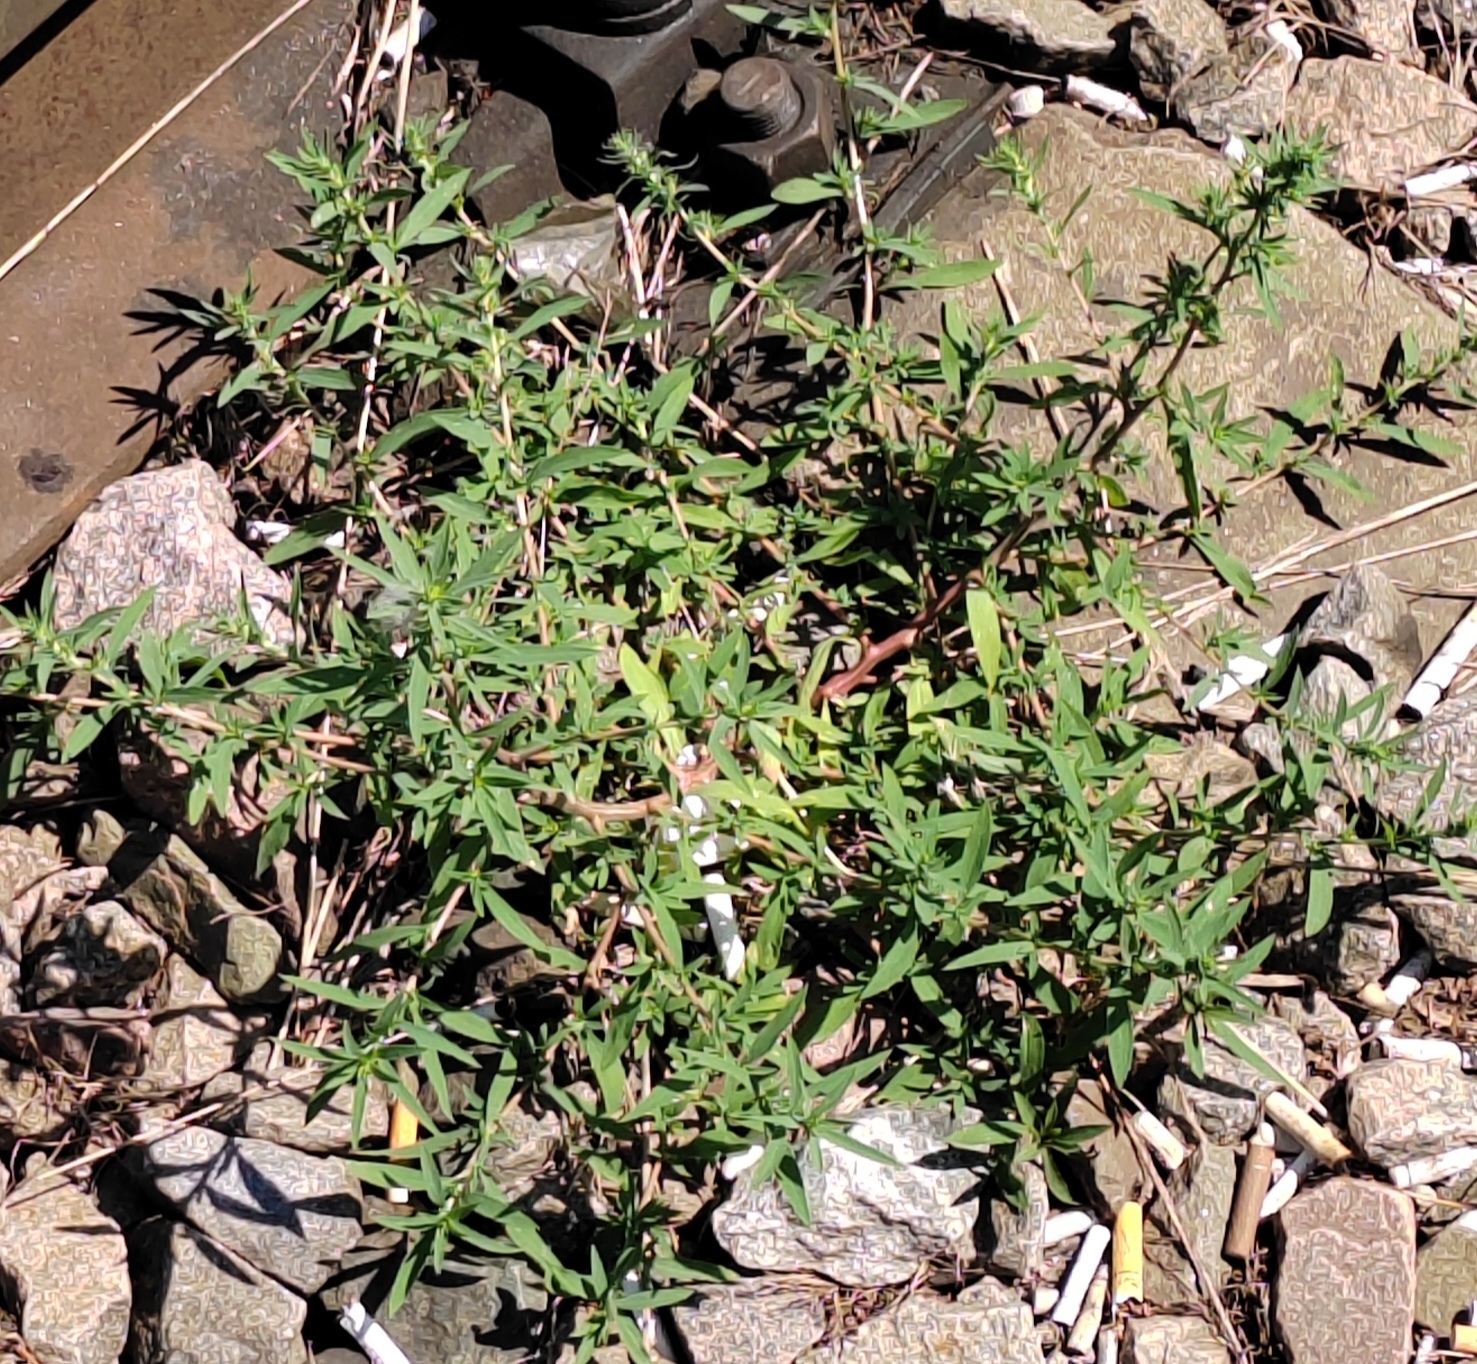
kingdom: Plantae
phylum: Tracheophyta
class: Magnoliopsida
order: Caryophyllales
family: Amaranthaceae
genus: Bassia
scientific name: Bassia scoparia
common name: Belvedere
